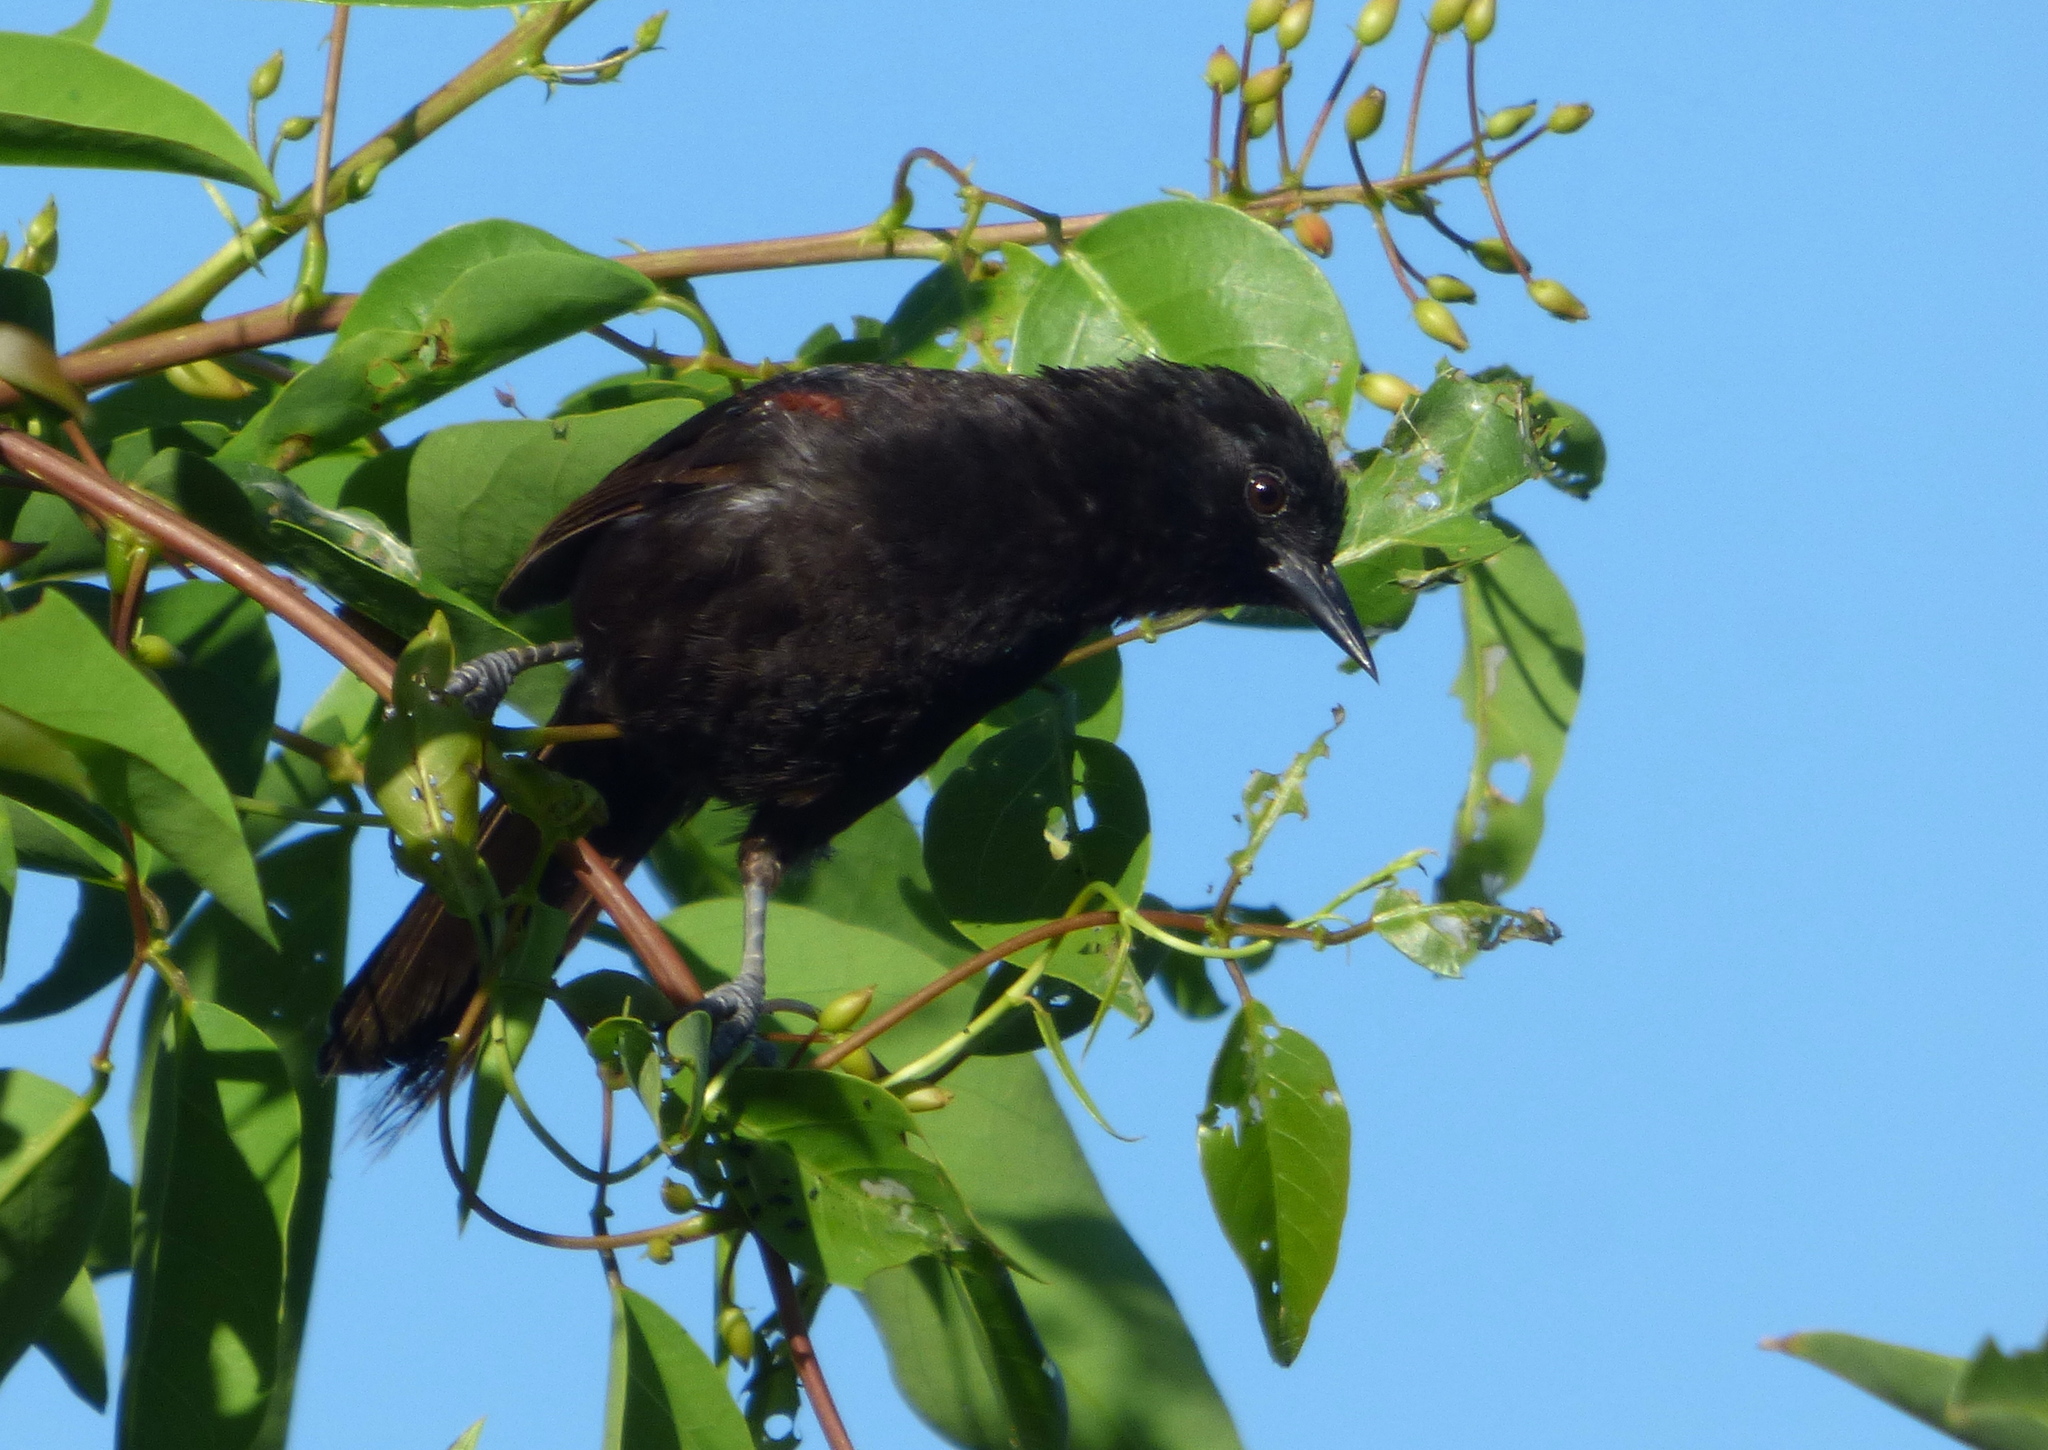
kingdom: Animalia
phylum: Chordata
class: Aves
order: Passeriformes
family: Icteridae
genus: Icterus
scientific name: Icterus cayanensis
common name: Epaulet oriole
